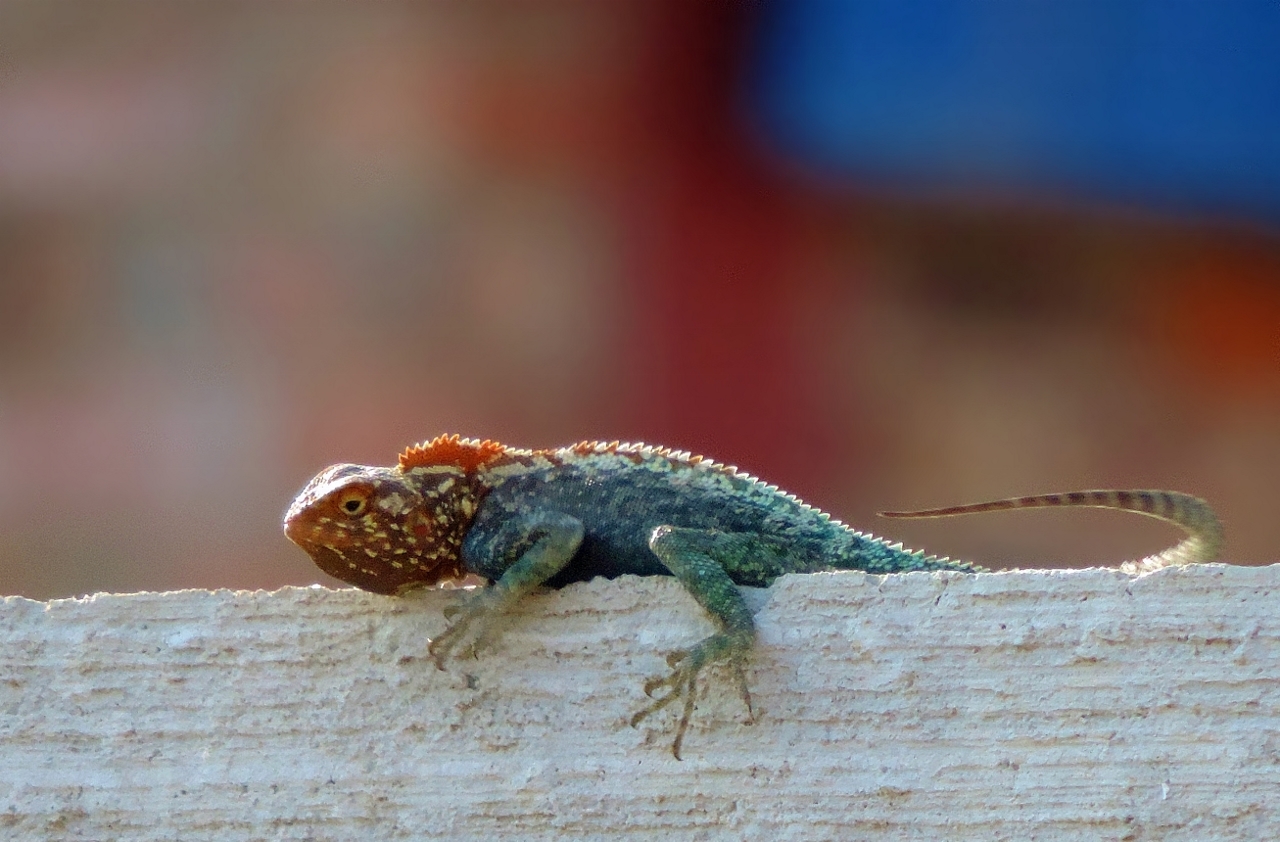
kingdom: Animalia
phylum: Chordata
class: Squamata
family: Agamidae
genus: Agama
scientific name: Agama kirkii
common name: Kirk's rock agama
